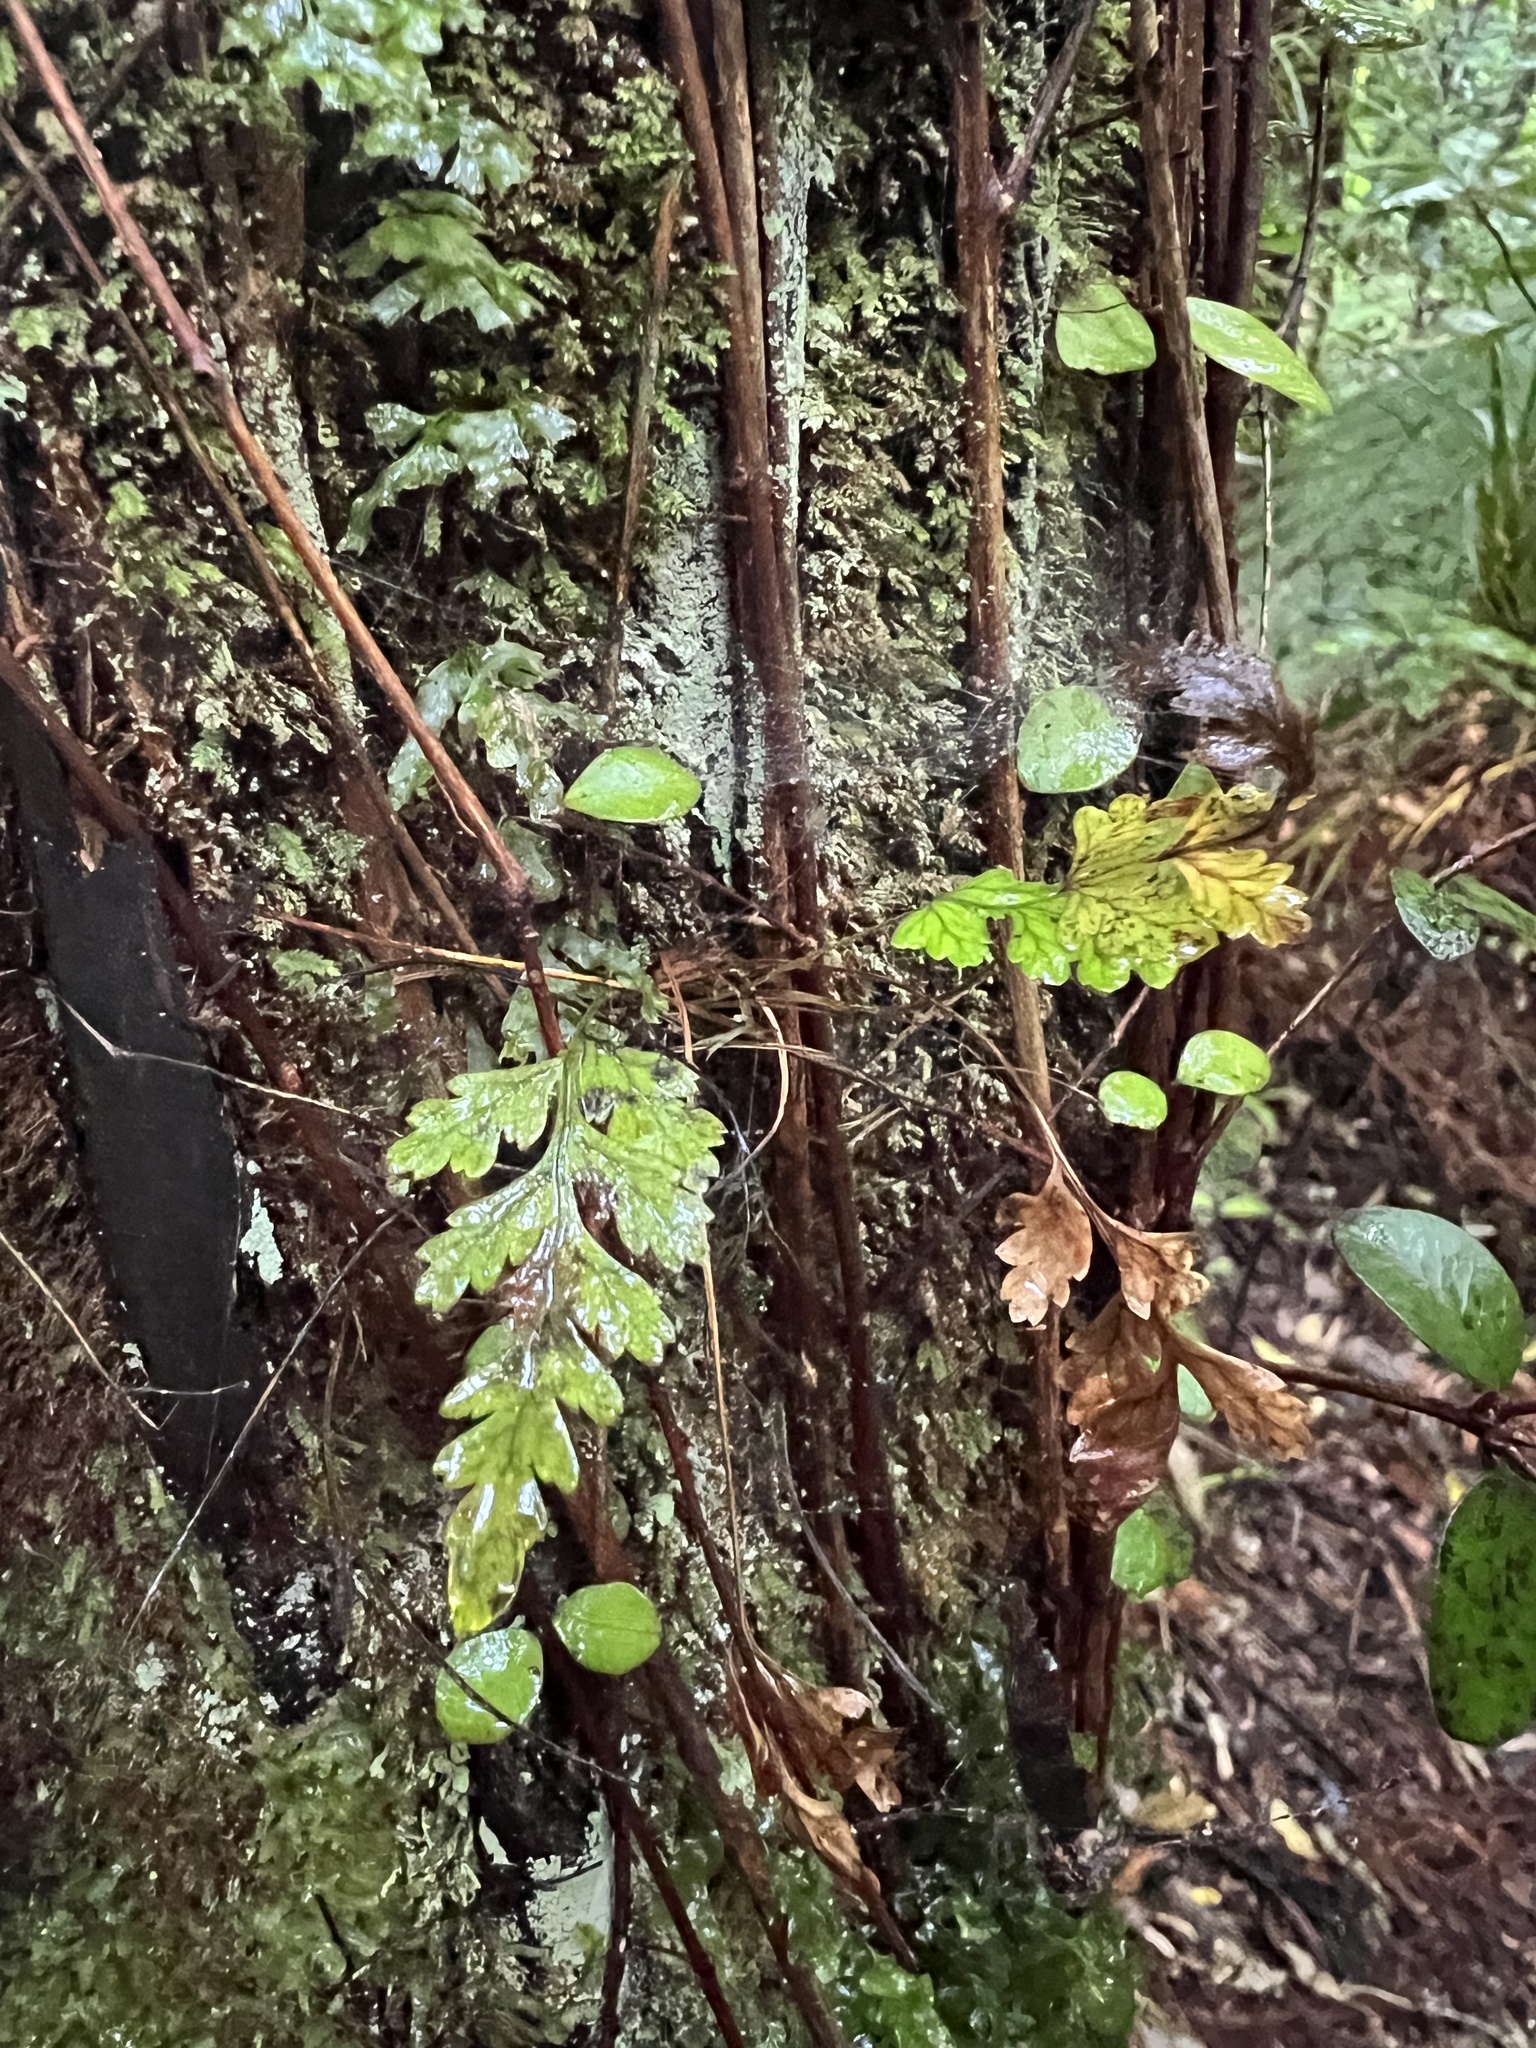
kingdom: Plantae
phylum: Tracheophyta
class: Polypodiopsida
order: Polypodiales
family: Dryopteridaceae
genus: Rumohra
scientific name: Rumohra adiantiformis
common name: Leather fern
